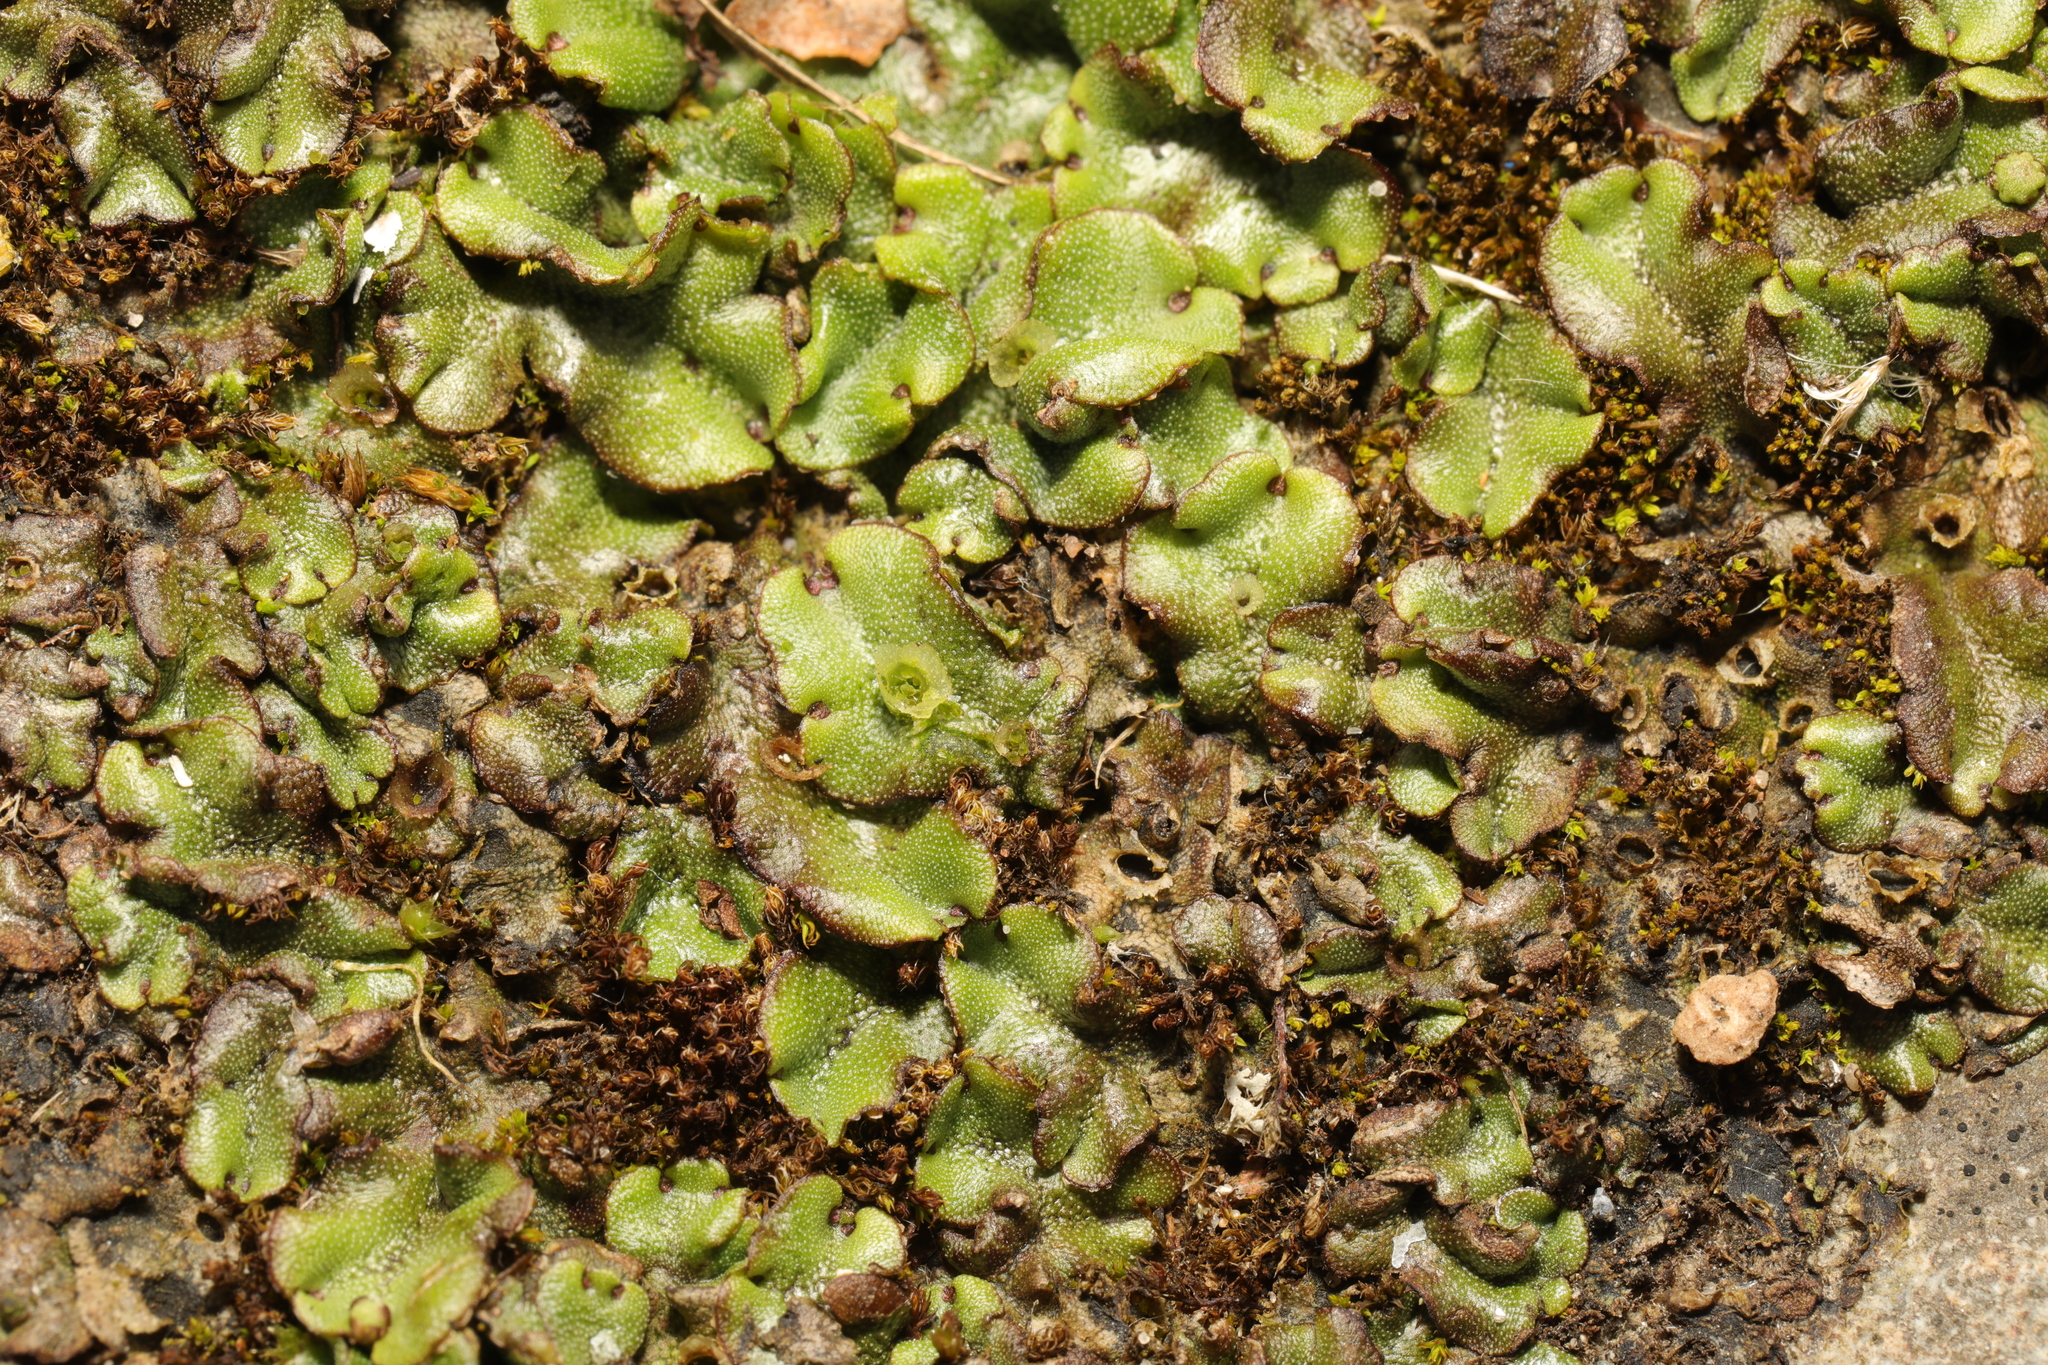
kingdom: Plantae
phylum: Marchantiophyta
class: Marchantiopsida
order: Marchantiales
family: Marchantiaceae
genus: Marchantia
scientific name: Marchantia polymorpha
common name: Common liverwort
